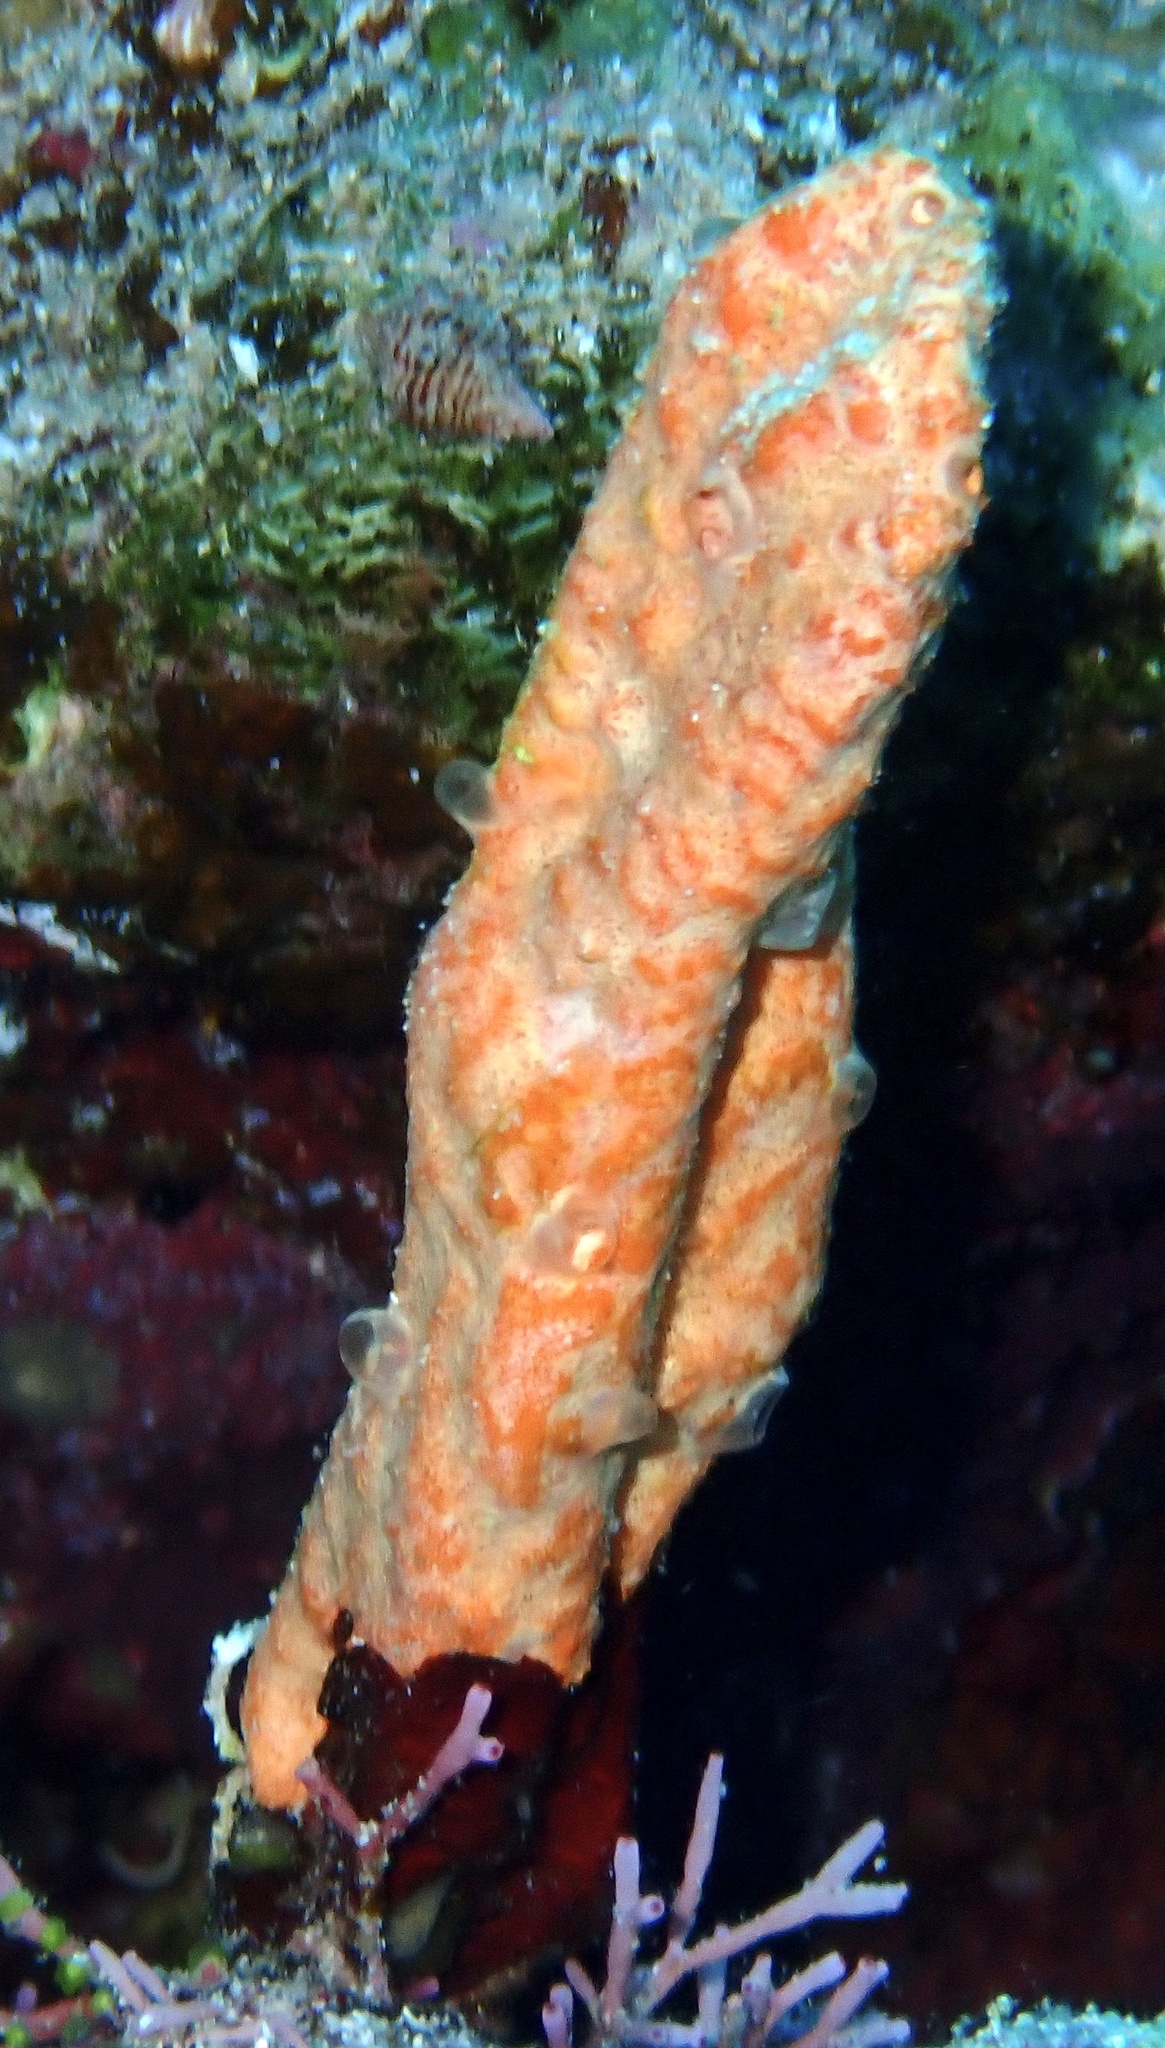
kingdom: Animalia
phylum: Porifera
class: Demospongiae
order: Scopalinida
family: Scopalinidae
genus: Stylissa
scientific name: Stylissa carteri
